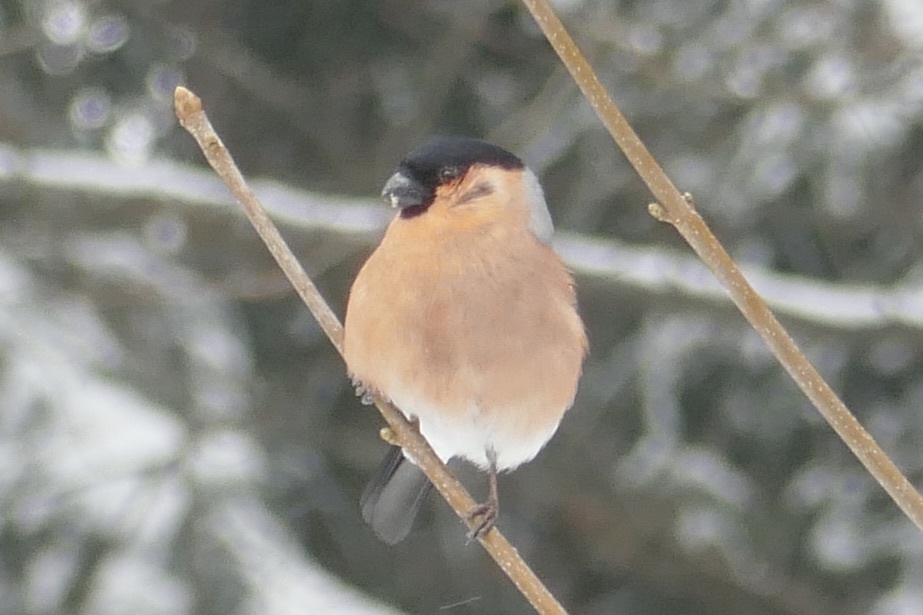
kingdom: Animalia
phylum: Chordata
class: Aves
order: Passeriformes
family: Fringillidae
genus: Pyrrhula
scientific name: Pyrrhula pyrrhula
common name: Eurasian bullfinch
